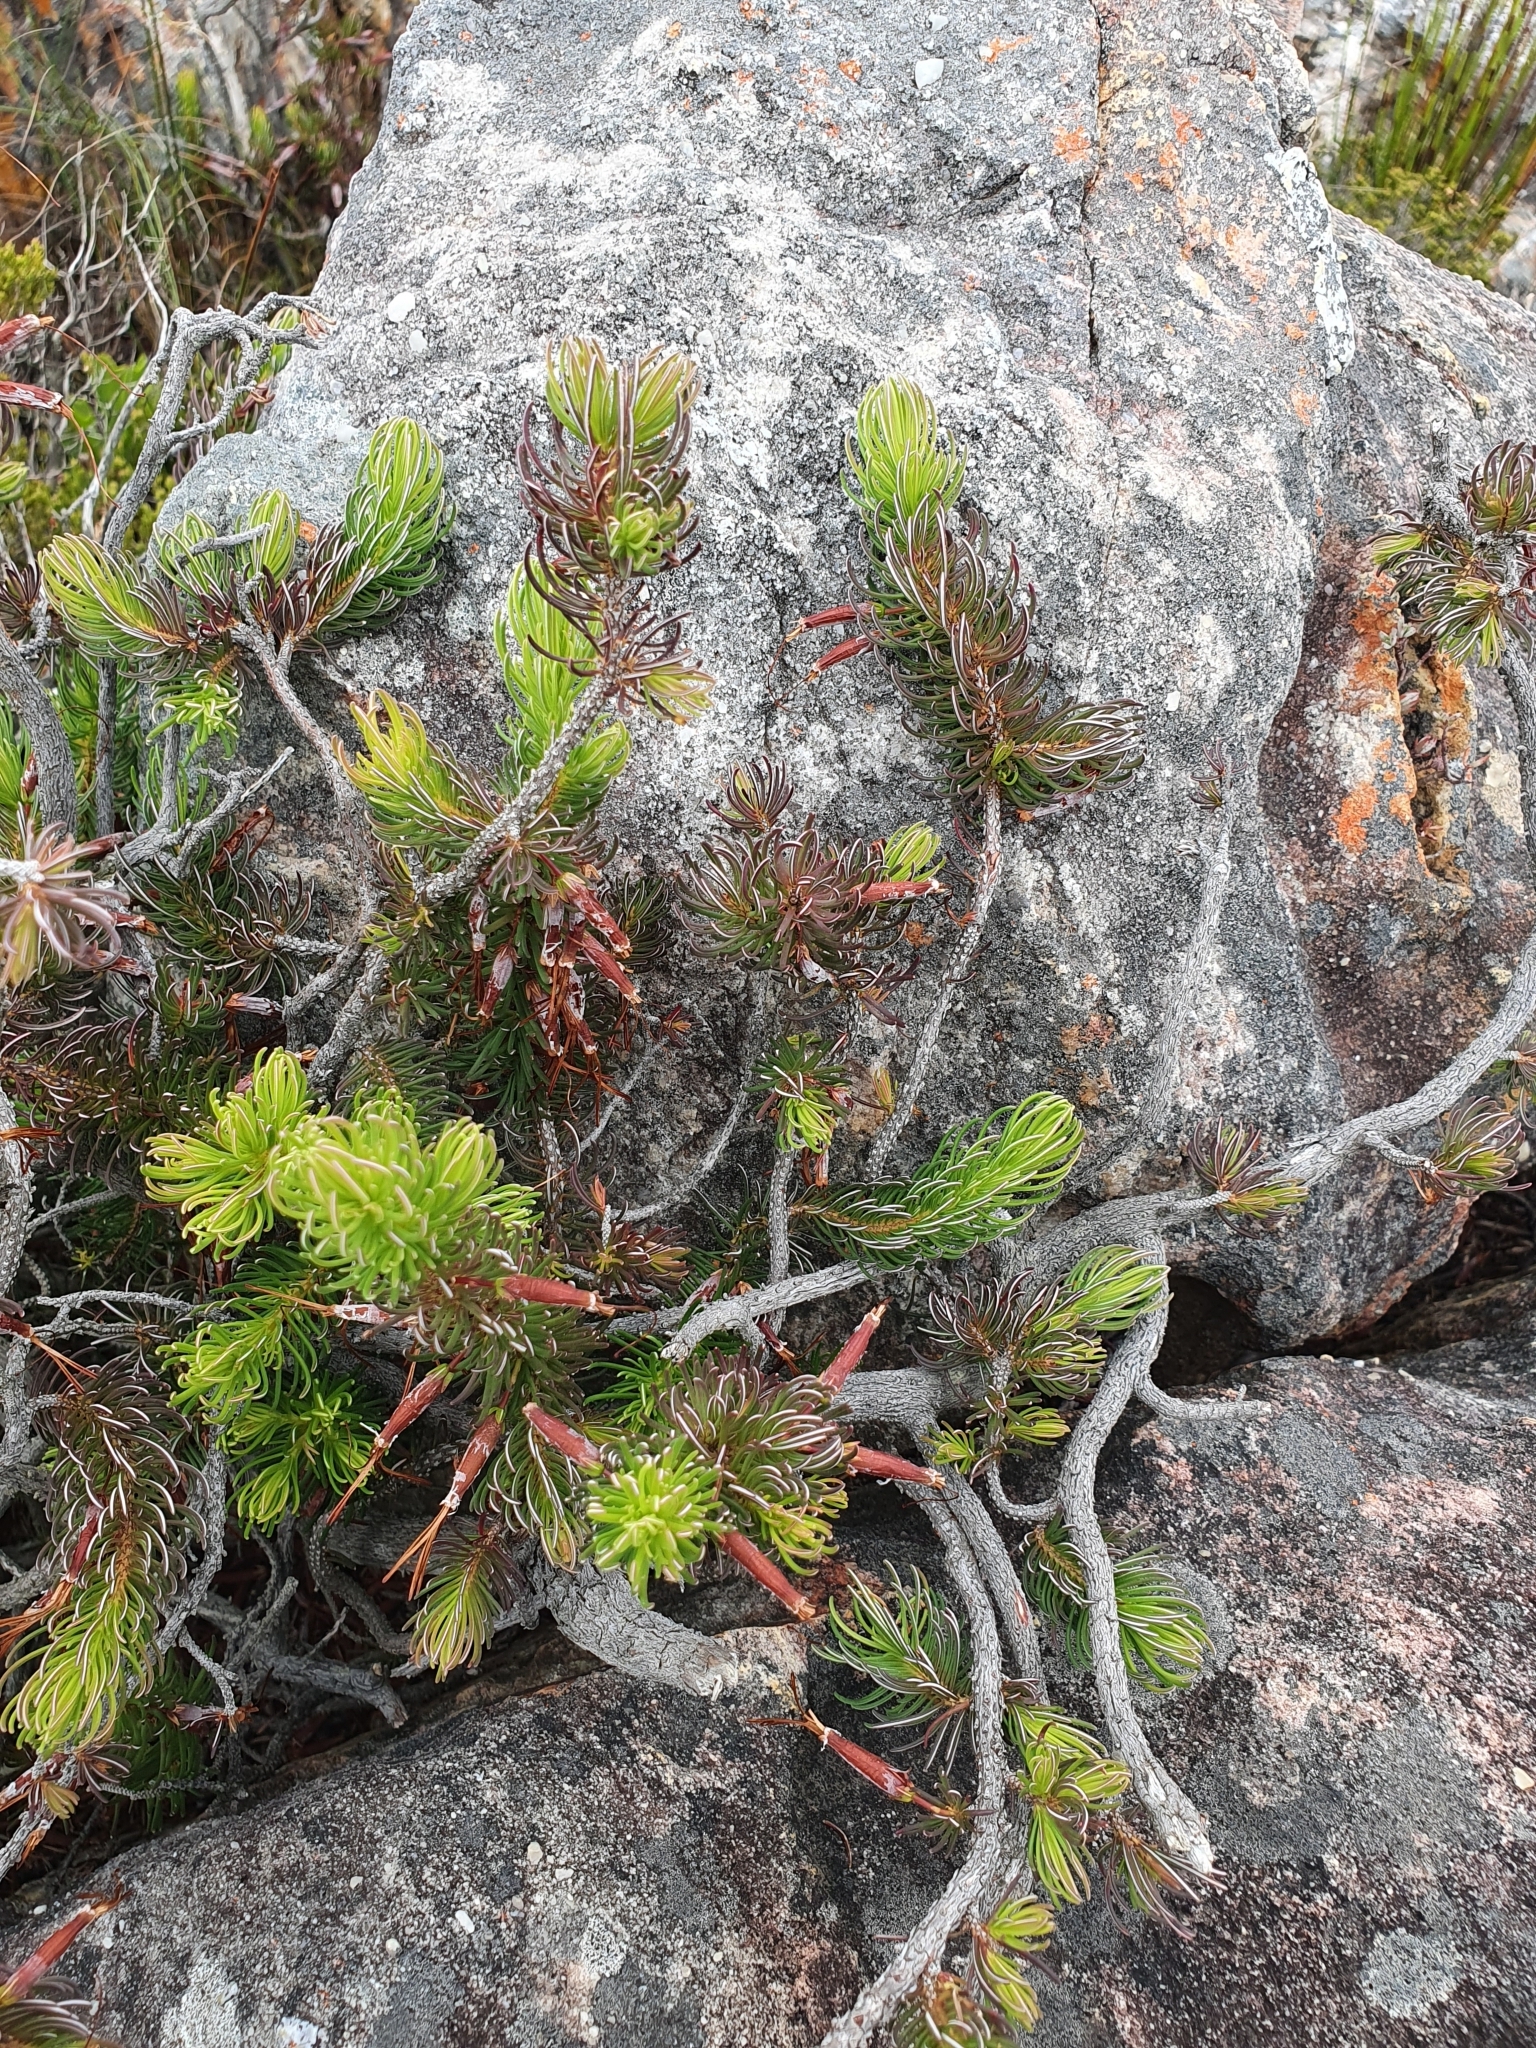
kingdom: Plantae
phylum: Tracheophyta
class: Magnoliopsida
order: Ericales
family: Ericaceae
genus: Erica
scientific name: Erica plukenetii
